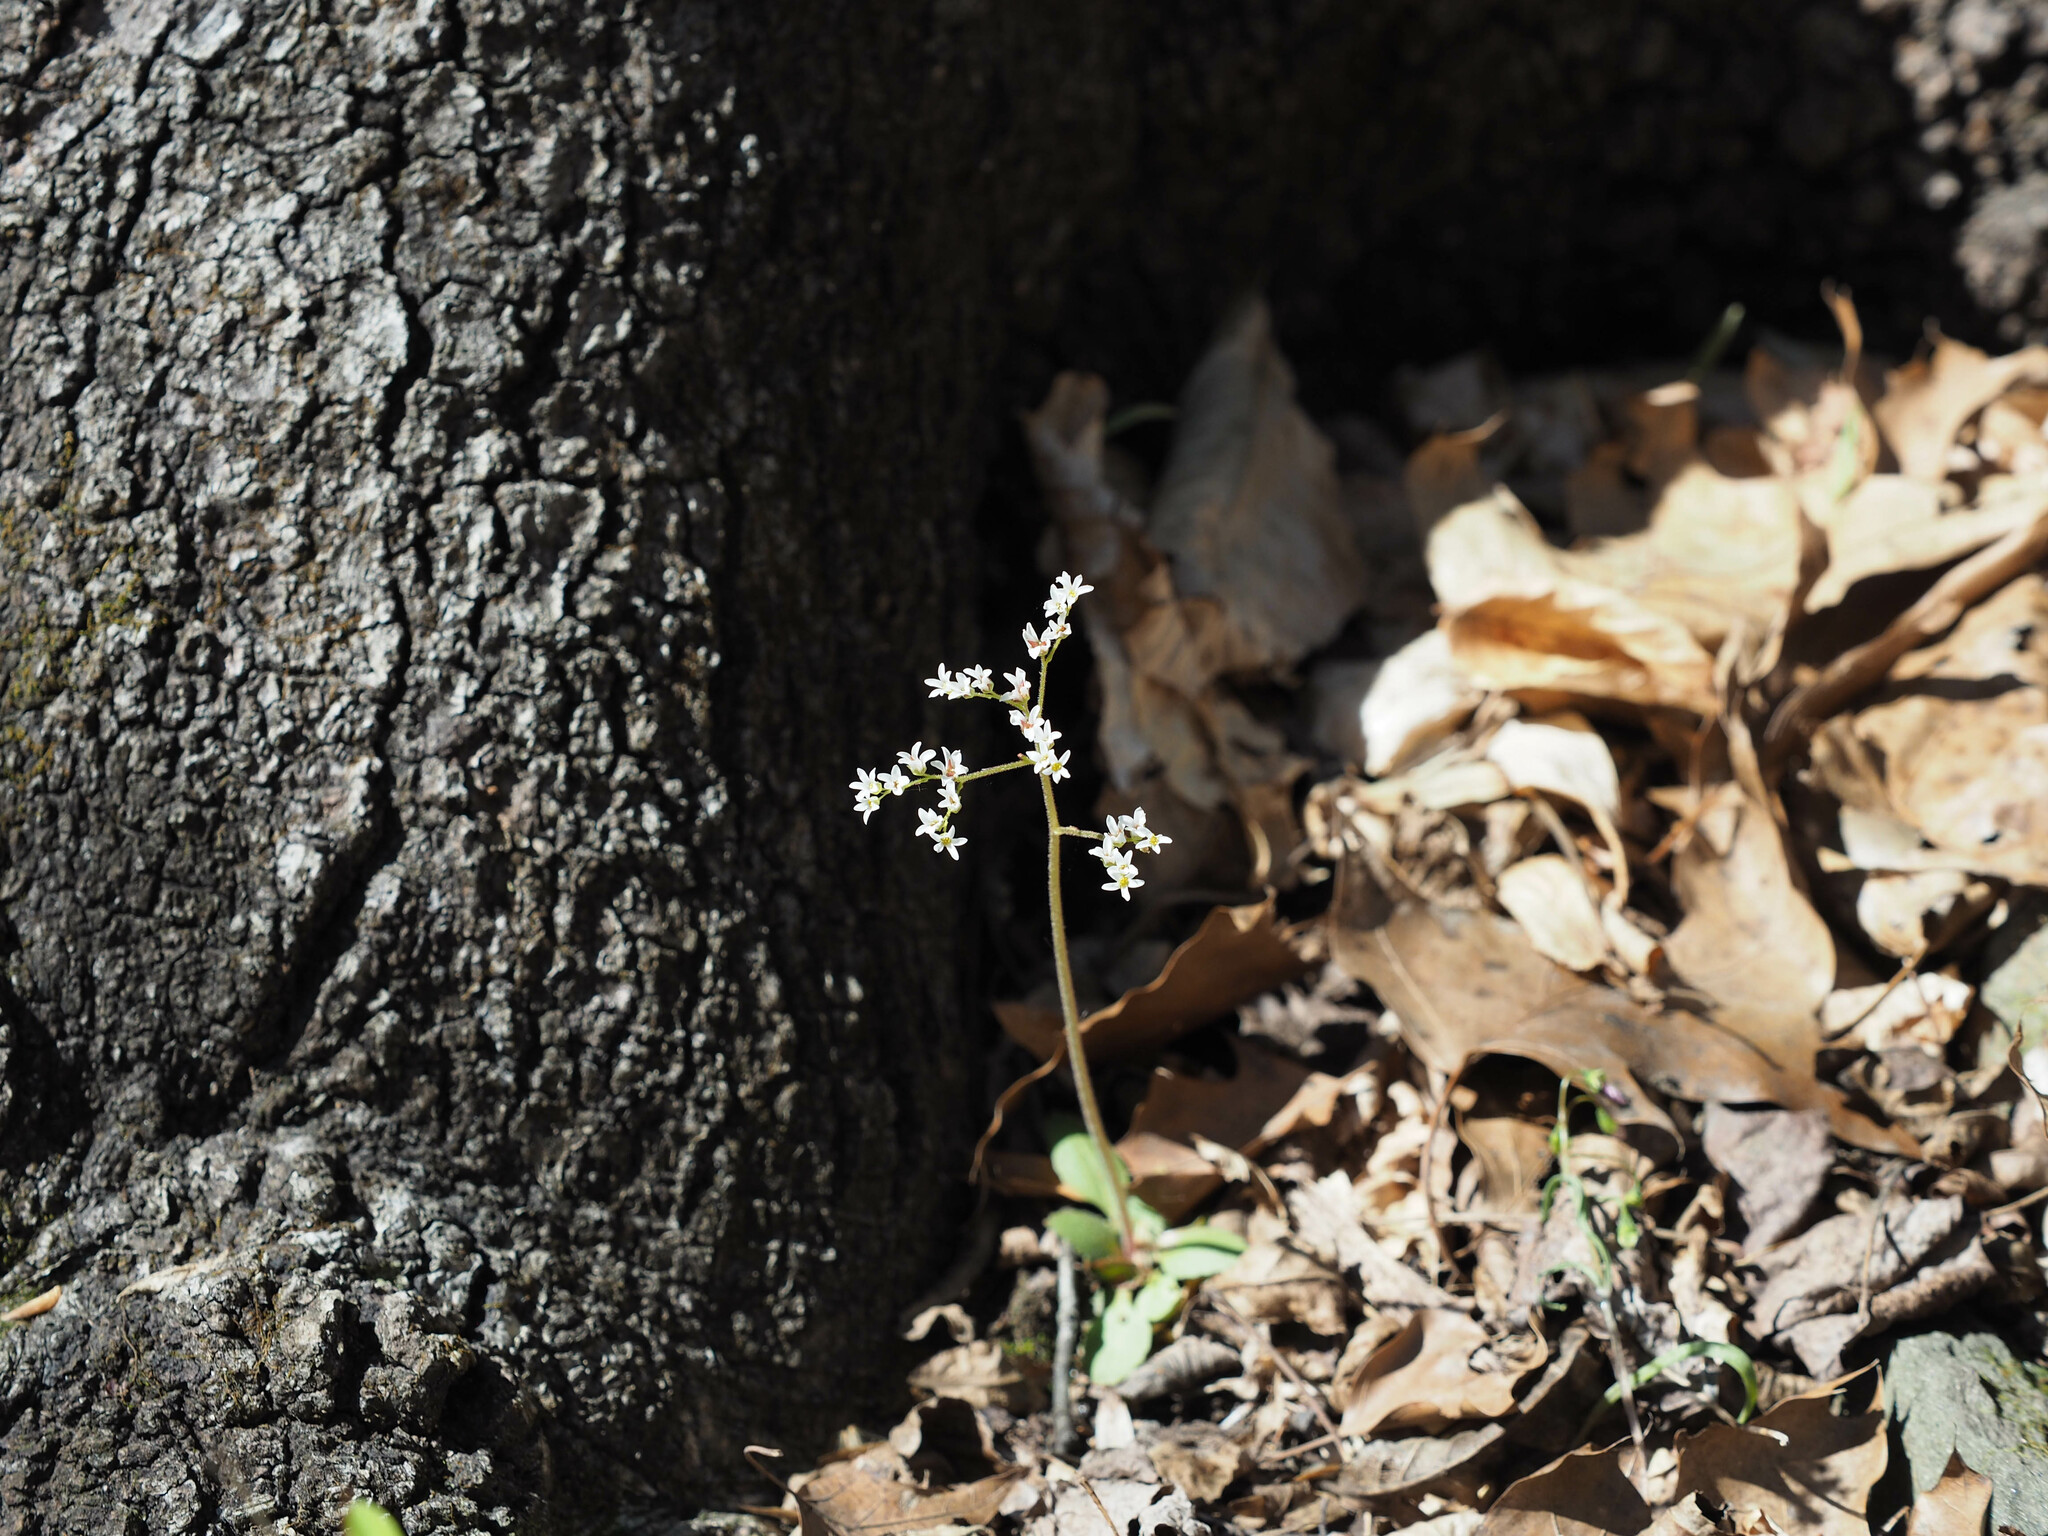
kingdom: Plantae
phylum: Tracheophyta
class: Magnoliopsida
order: Saxifragales
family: Saxifragaceae
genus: Micranthes
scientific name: Micranthes virginiensis
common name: Early saxifrage
